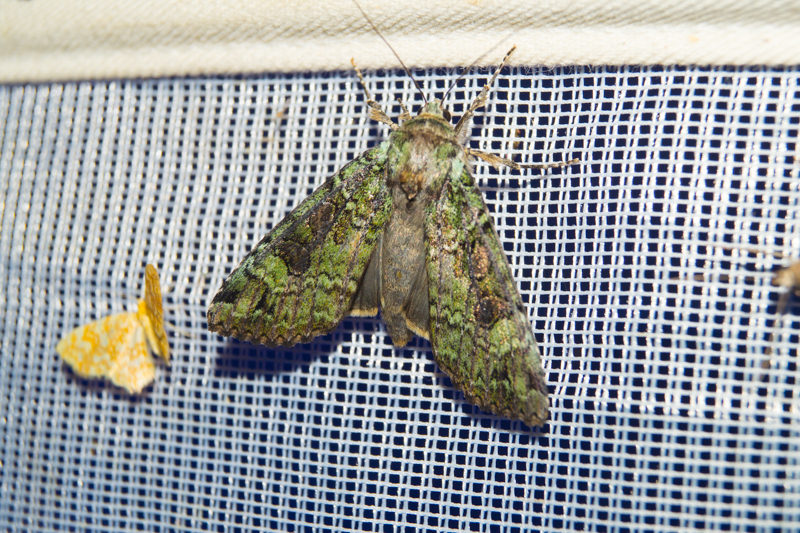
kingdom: Animalia
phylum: Arthropoda
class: Insecta
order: Lepidoptera
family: Noctuidae
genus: Anaplectoides
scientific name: Anaplectoides prasina
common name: Green arches
